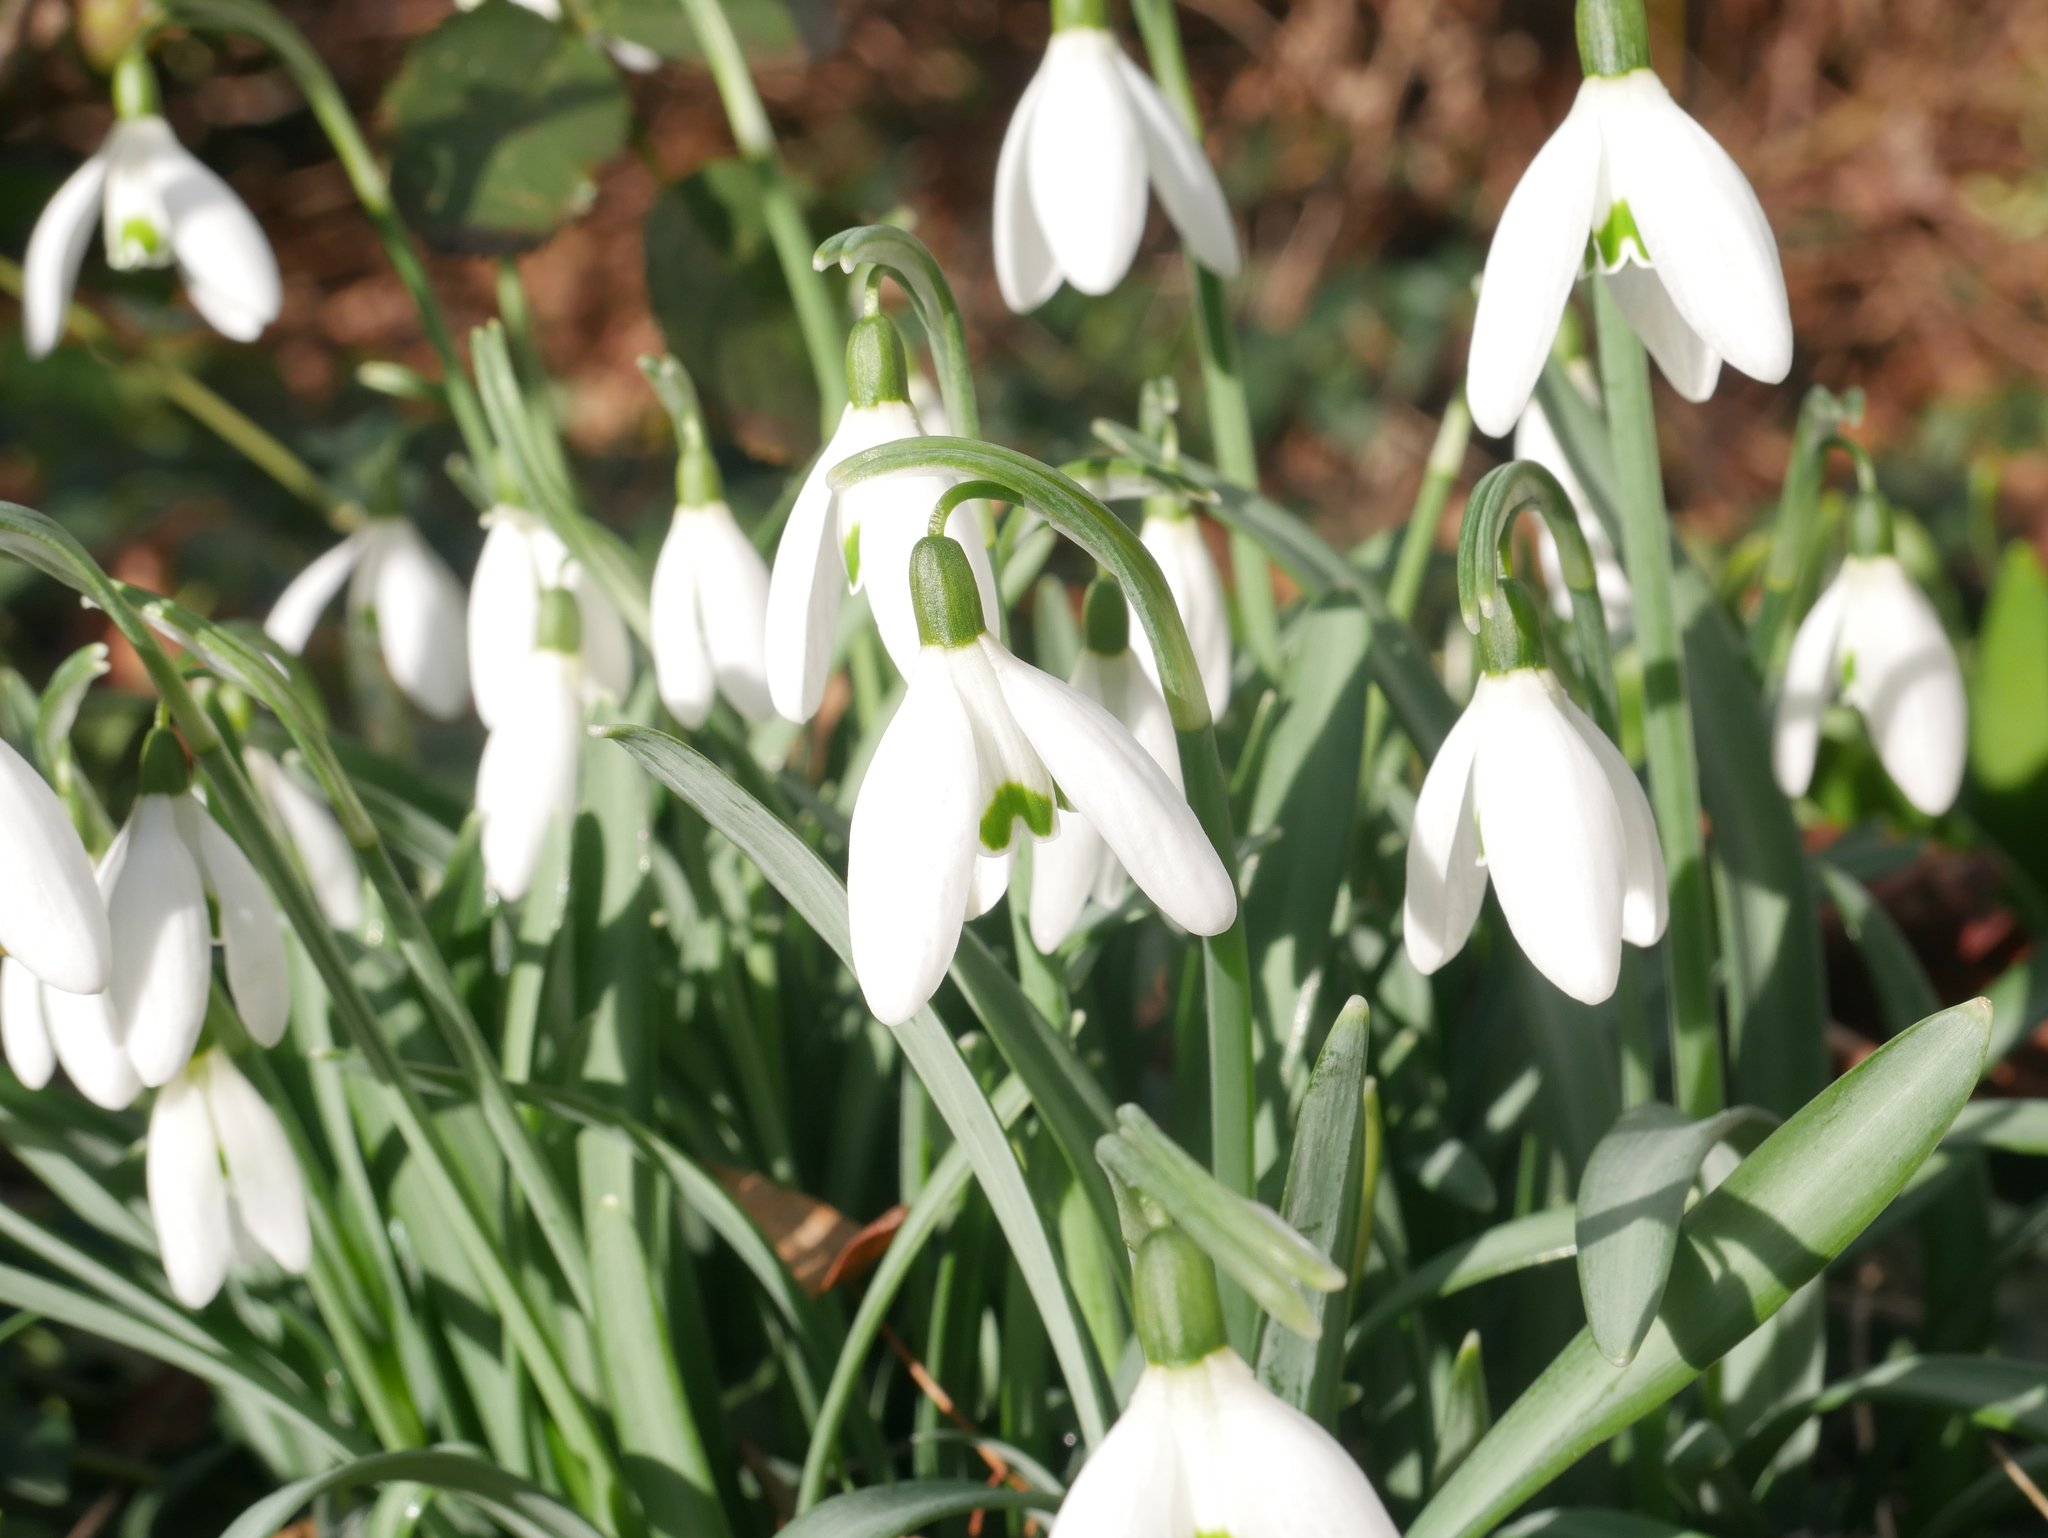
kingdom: Plantae
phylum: Tracheophyta
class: Liliopsida
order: Asparagales
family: Amaryllidaceae
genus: Galanthus
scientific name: Galanthus nivalis
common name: Snowdrop
